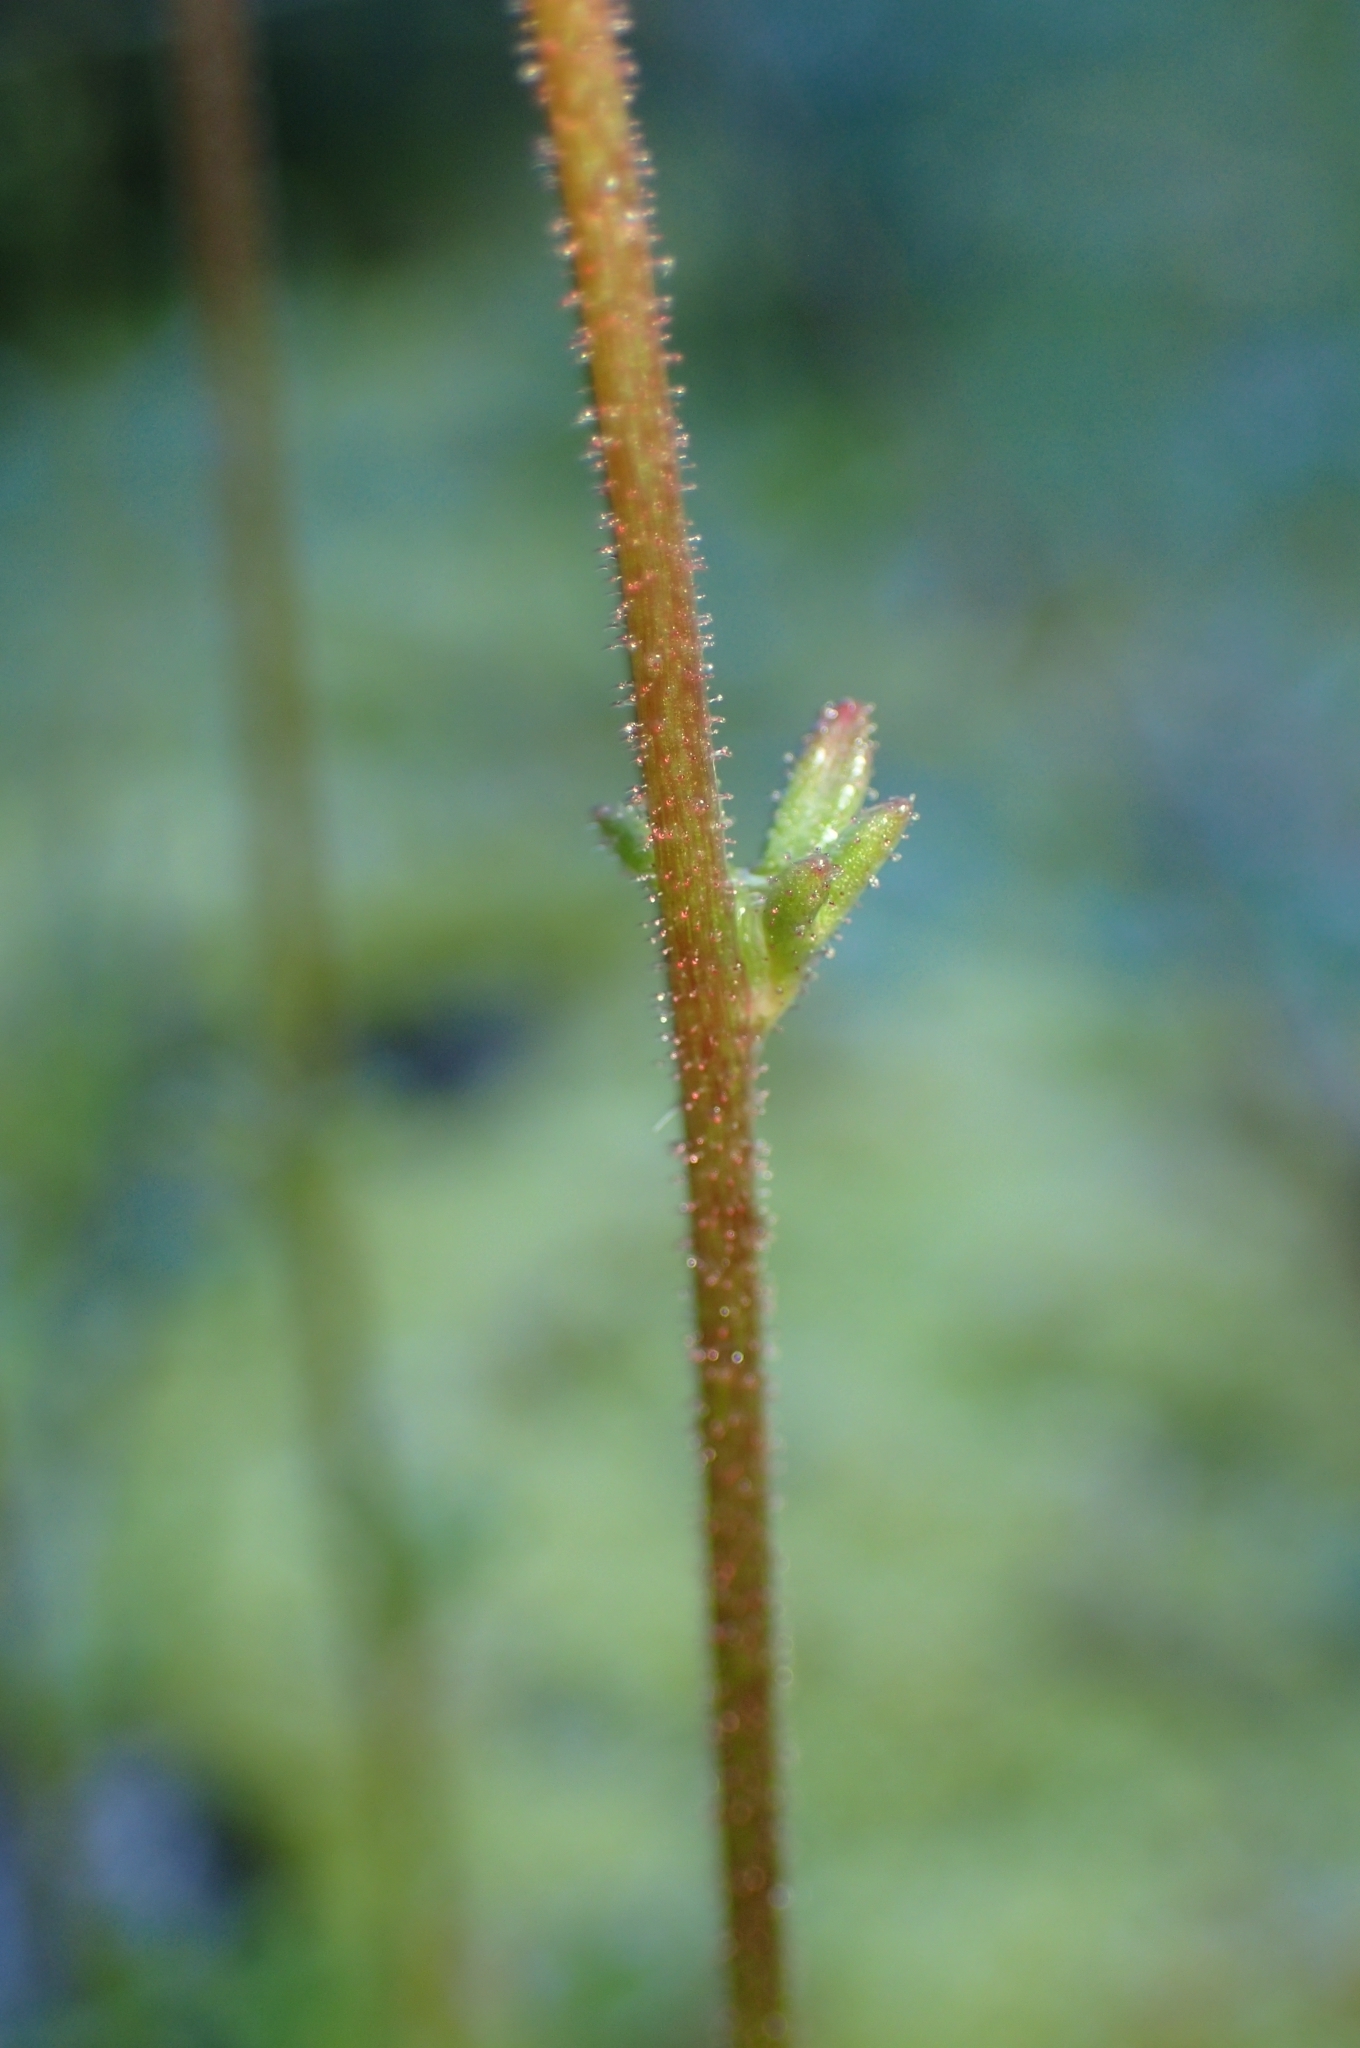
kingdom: Plantae
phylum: Tracheophyta
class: Magnoliopsida
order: Saxifragales
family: Saxifragaceae
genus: Saxifraga
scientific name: Saxifraga dichotoma
